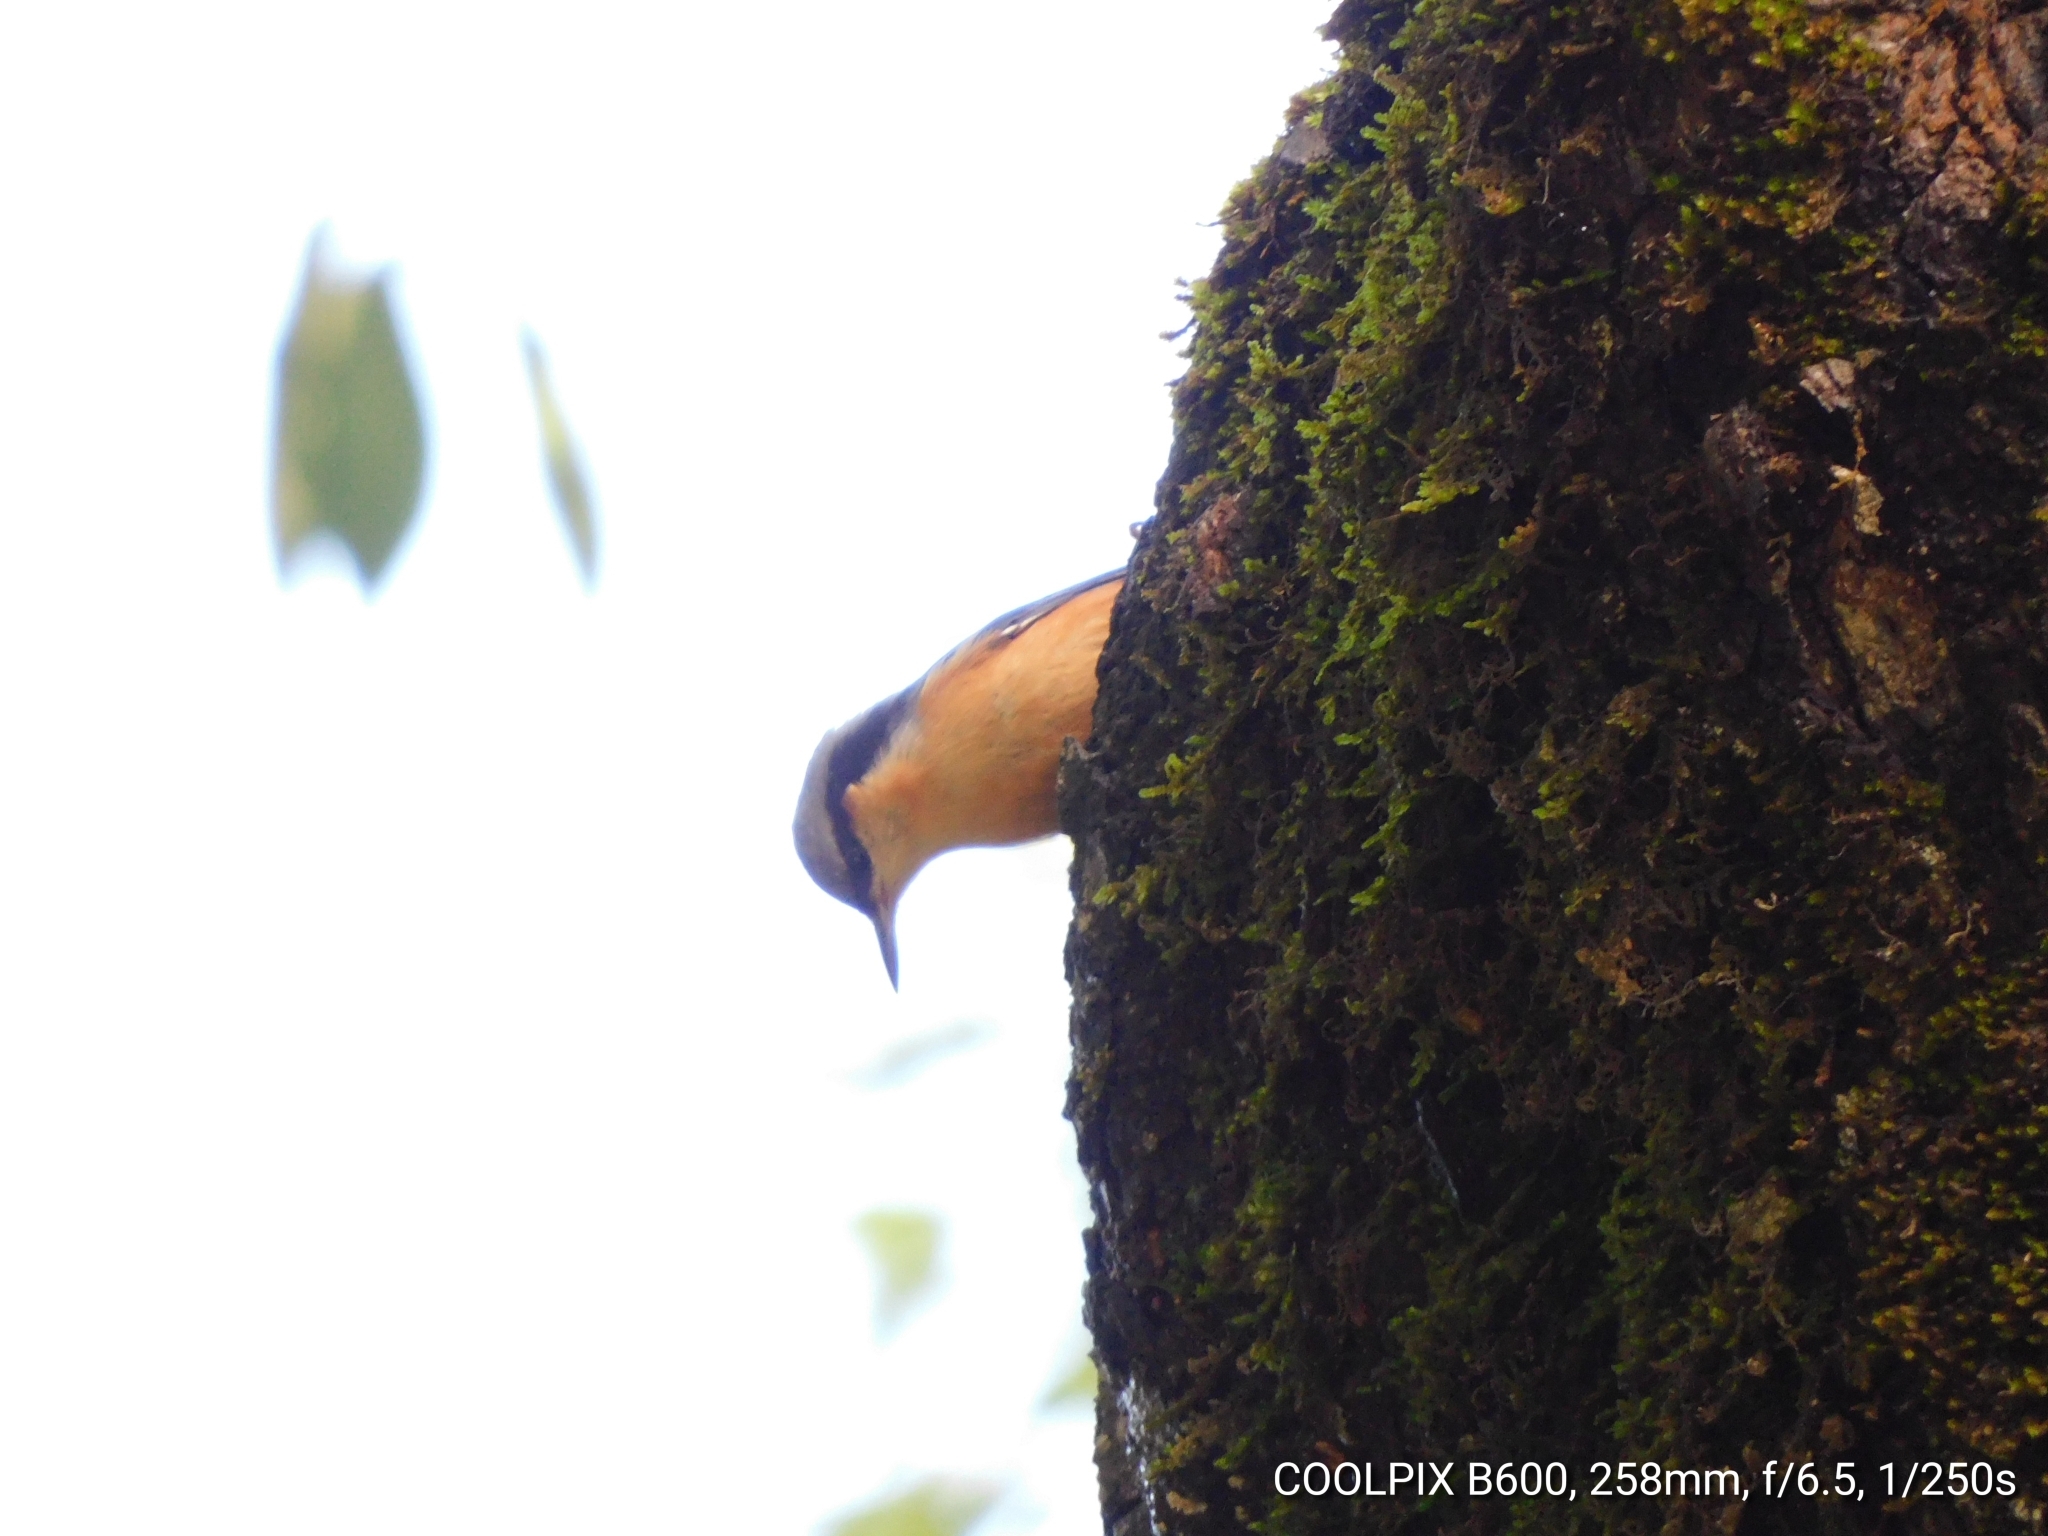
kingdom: Animalia
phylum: Chordata
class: Aves
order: Passeriformes
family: Sittidae
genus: Sitta
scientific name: Sitta himalayensis
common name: White-tailed nuthatch
